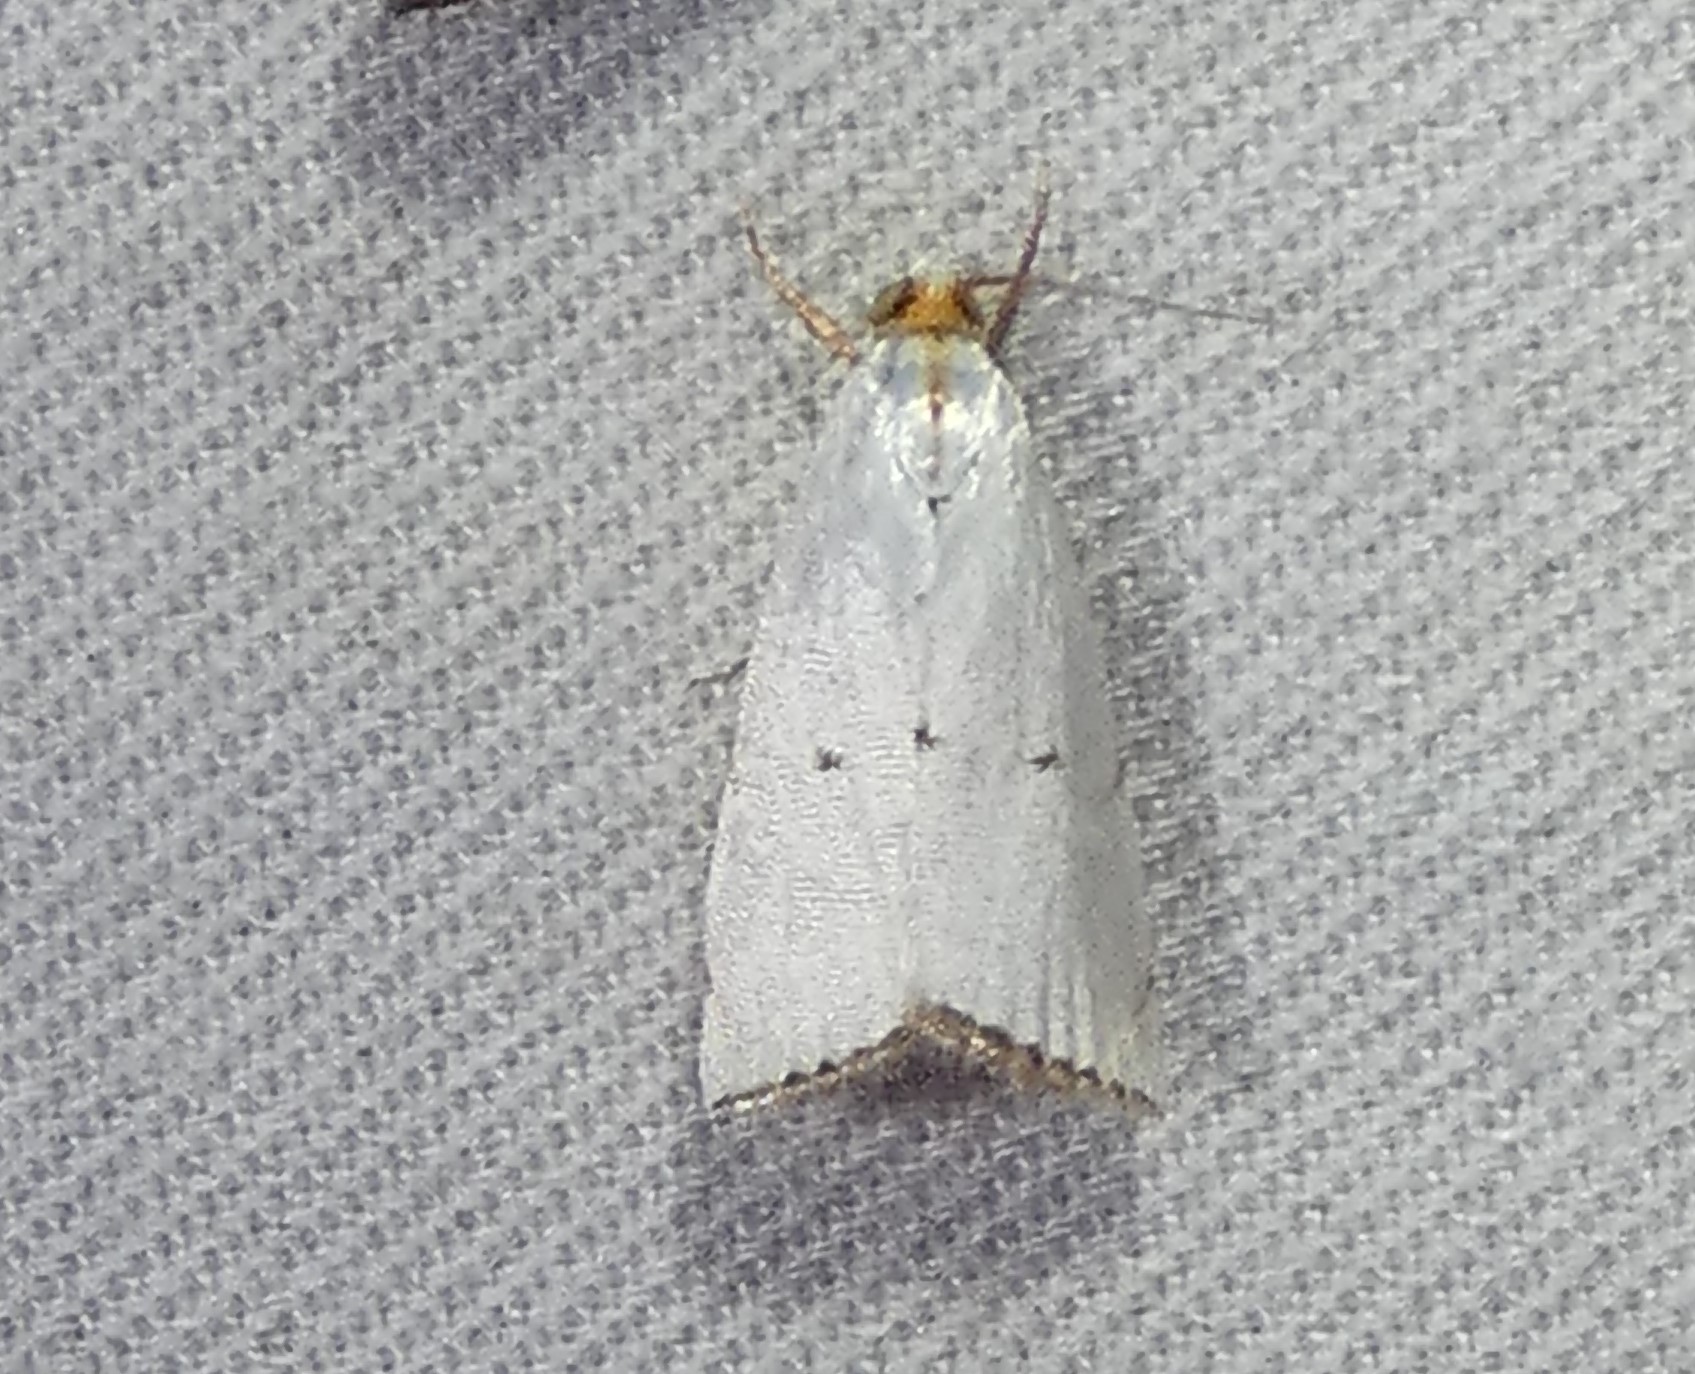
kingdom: Animalia
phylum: Arthropoda
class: Insecta
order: Lepidoptera
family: Crambidae
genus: Argyria
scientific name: Argyria pusillalis
